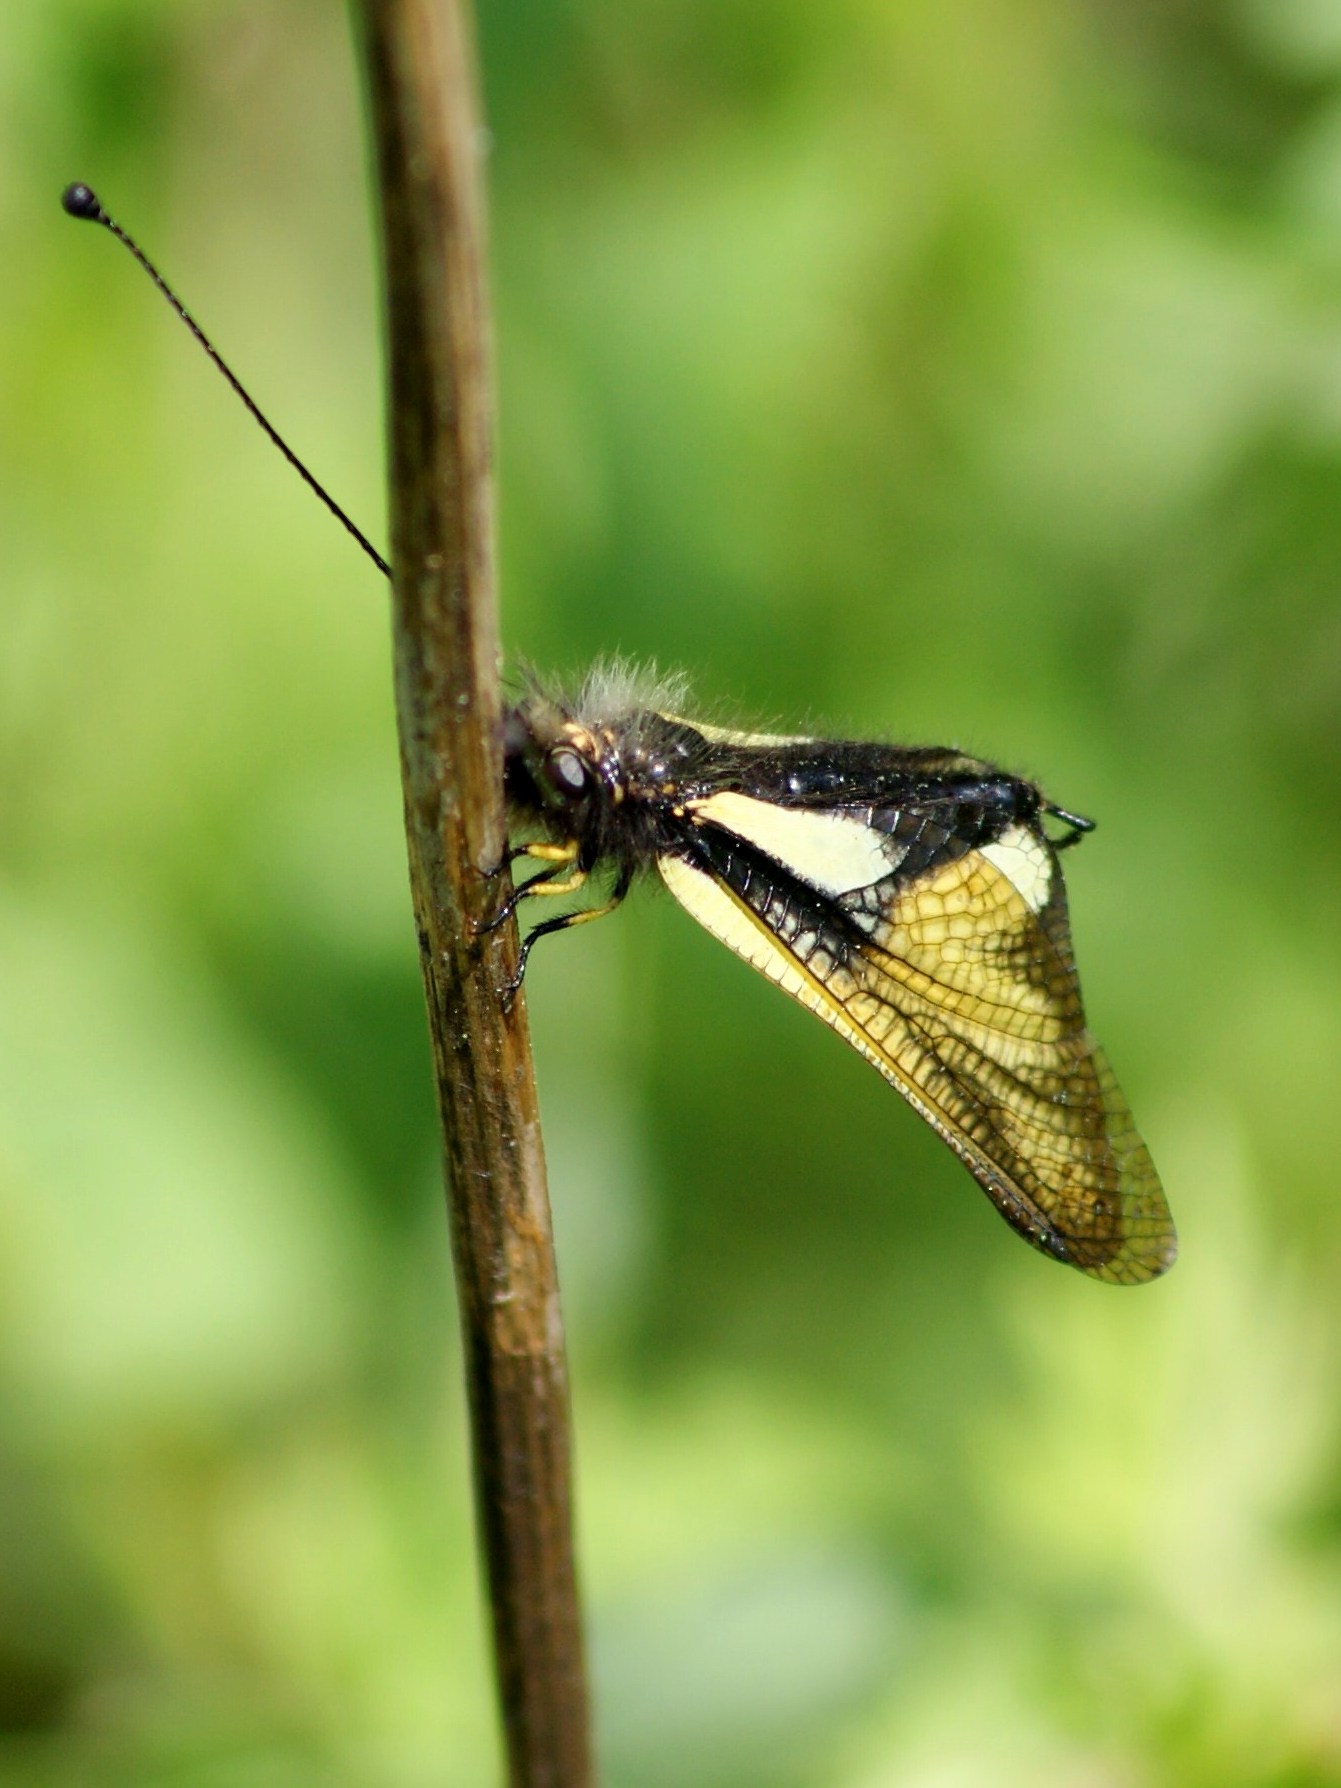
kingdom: Animalia
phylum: Arthropoda
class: Insecta
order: Neuroptera
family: Ascalaphidae
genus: Libelloides
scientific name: Libelloides coccajus
